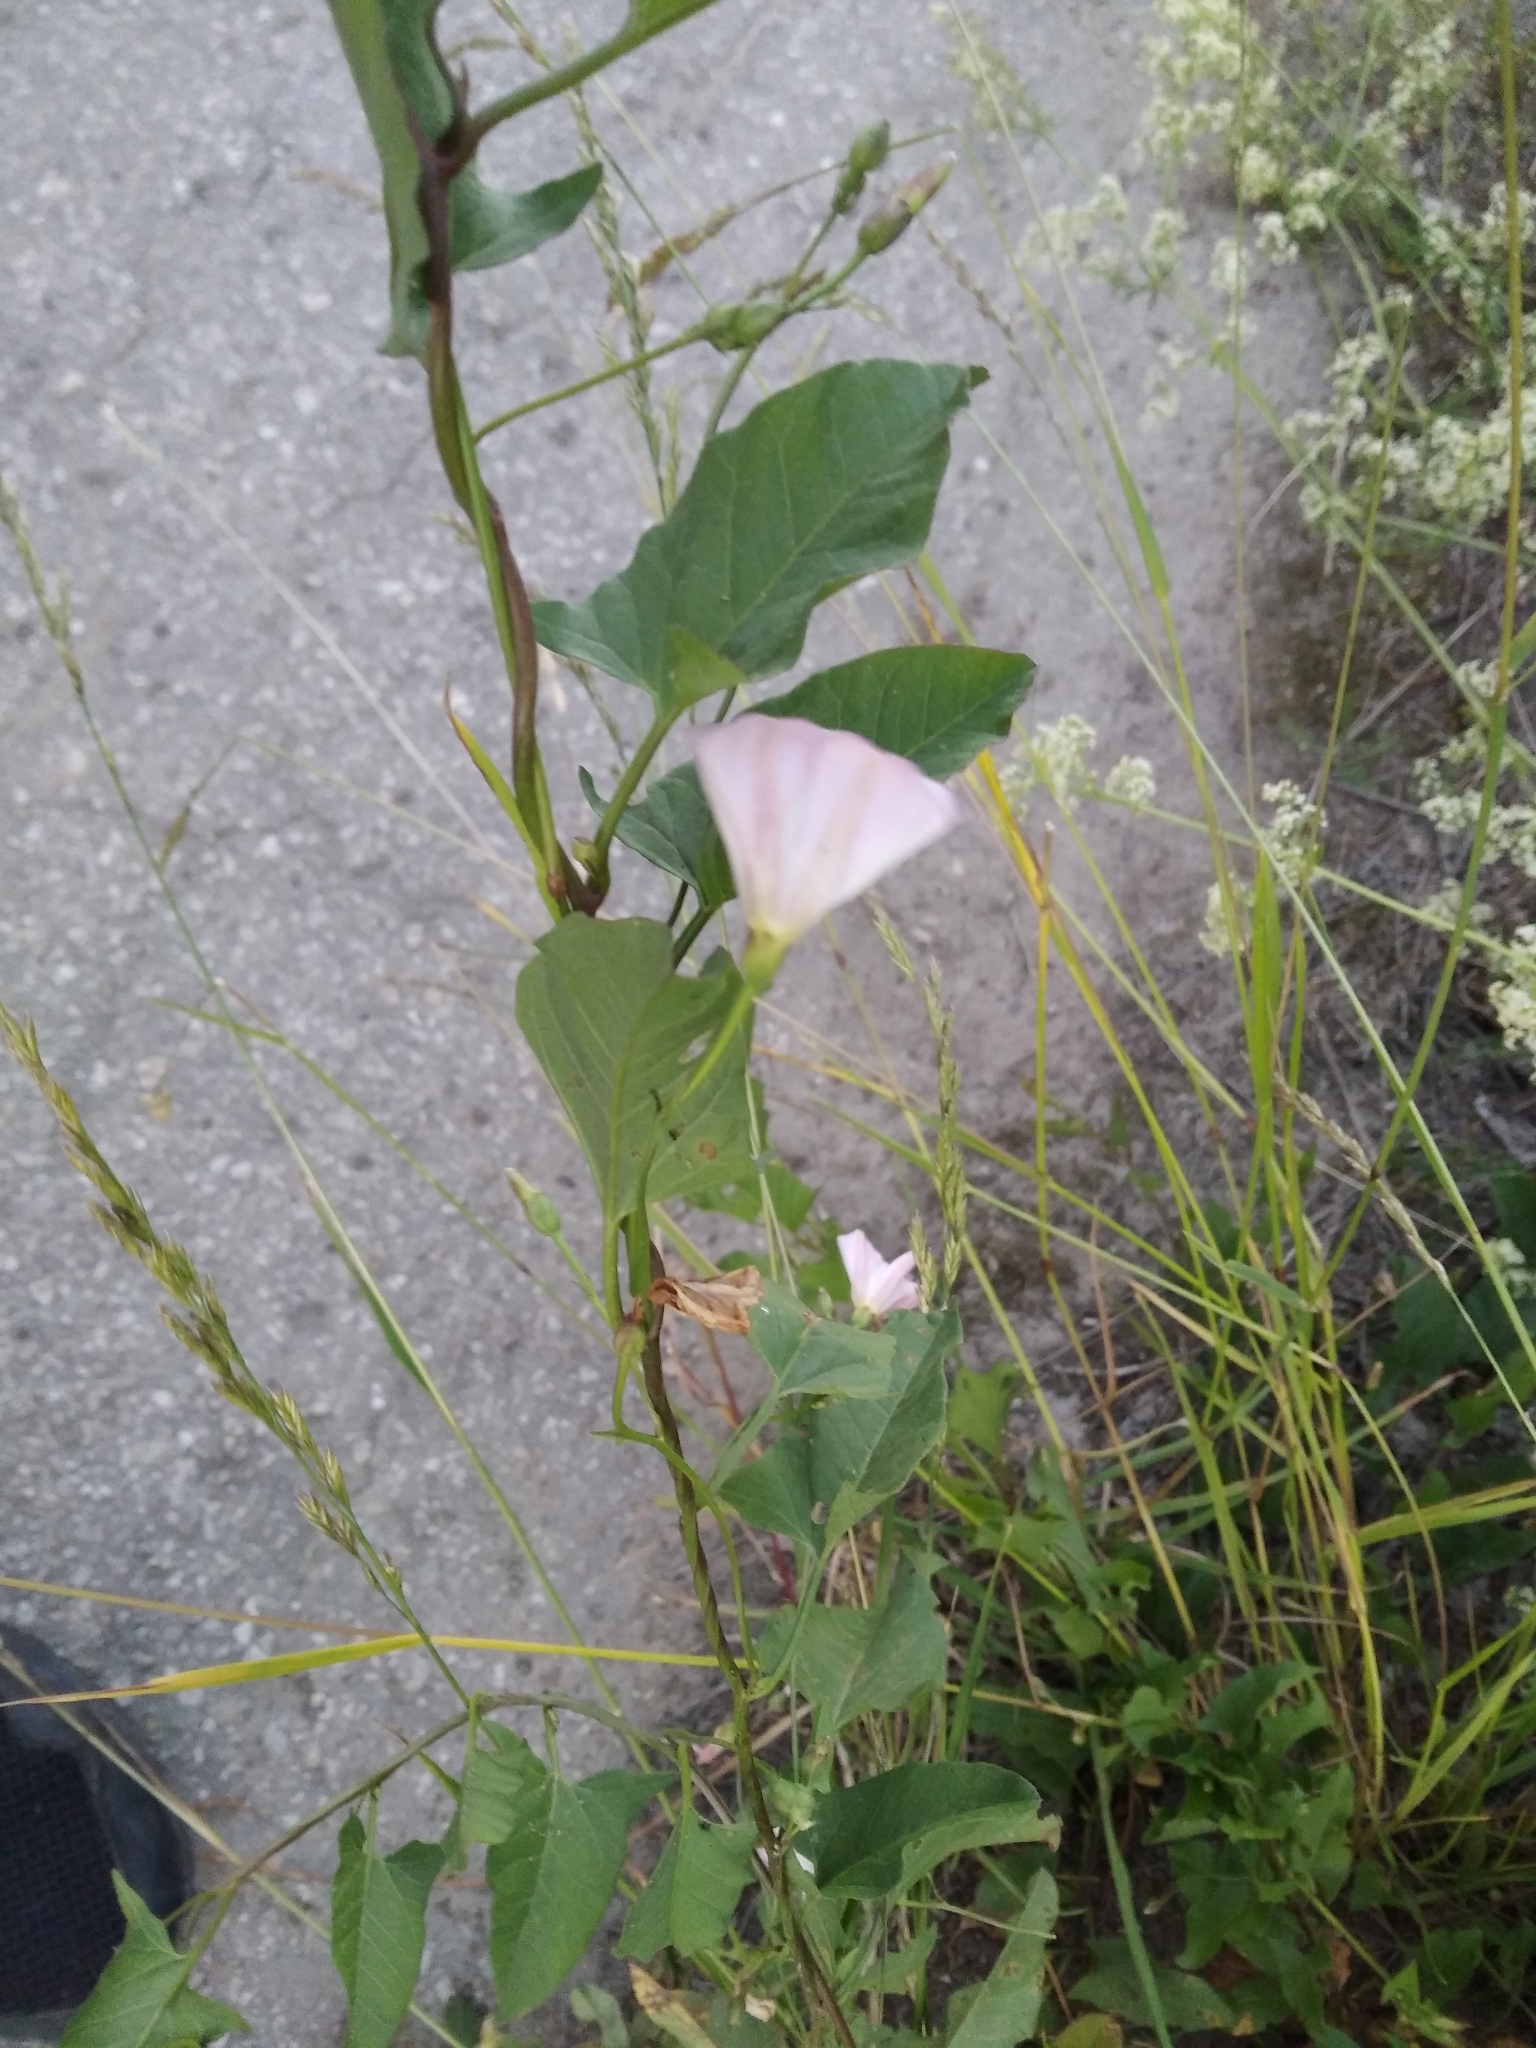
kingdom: Plantae
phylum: Tracheophyta
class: Magnoliopsida
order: Solanales
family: Convolvulaceae
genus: Convolvulus
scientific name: Convolvulus arvensis
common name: Field bindweed
